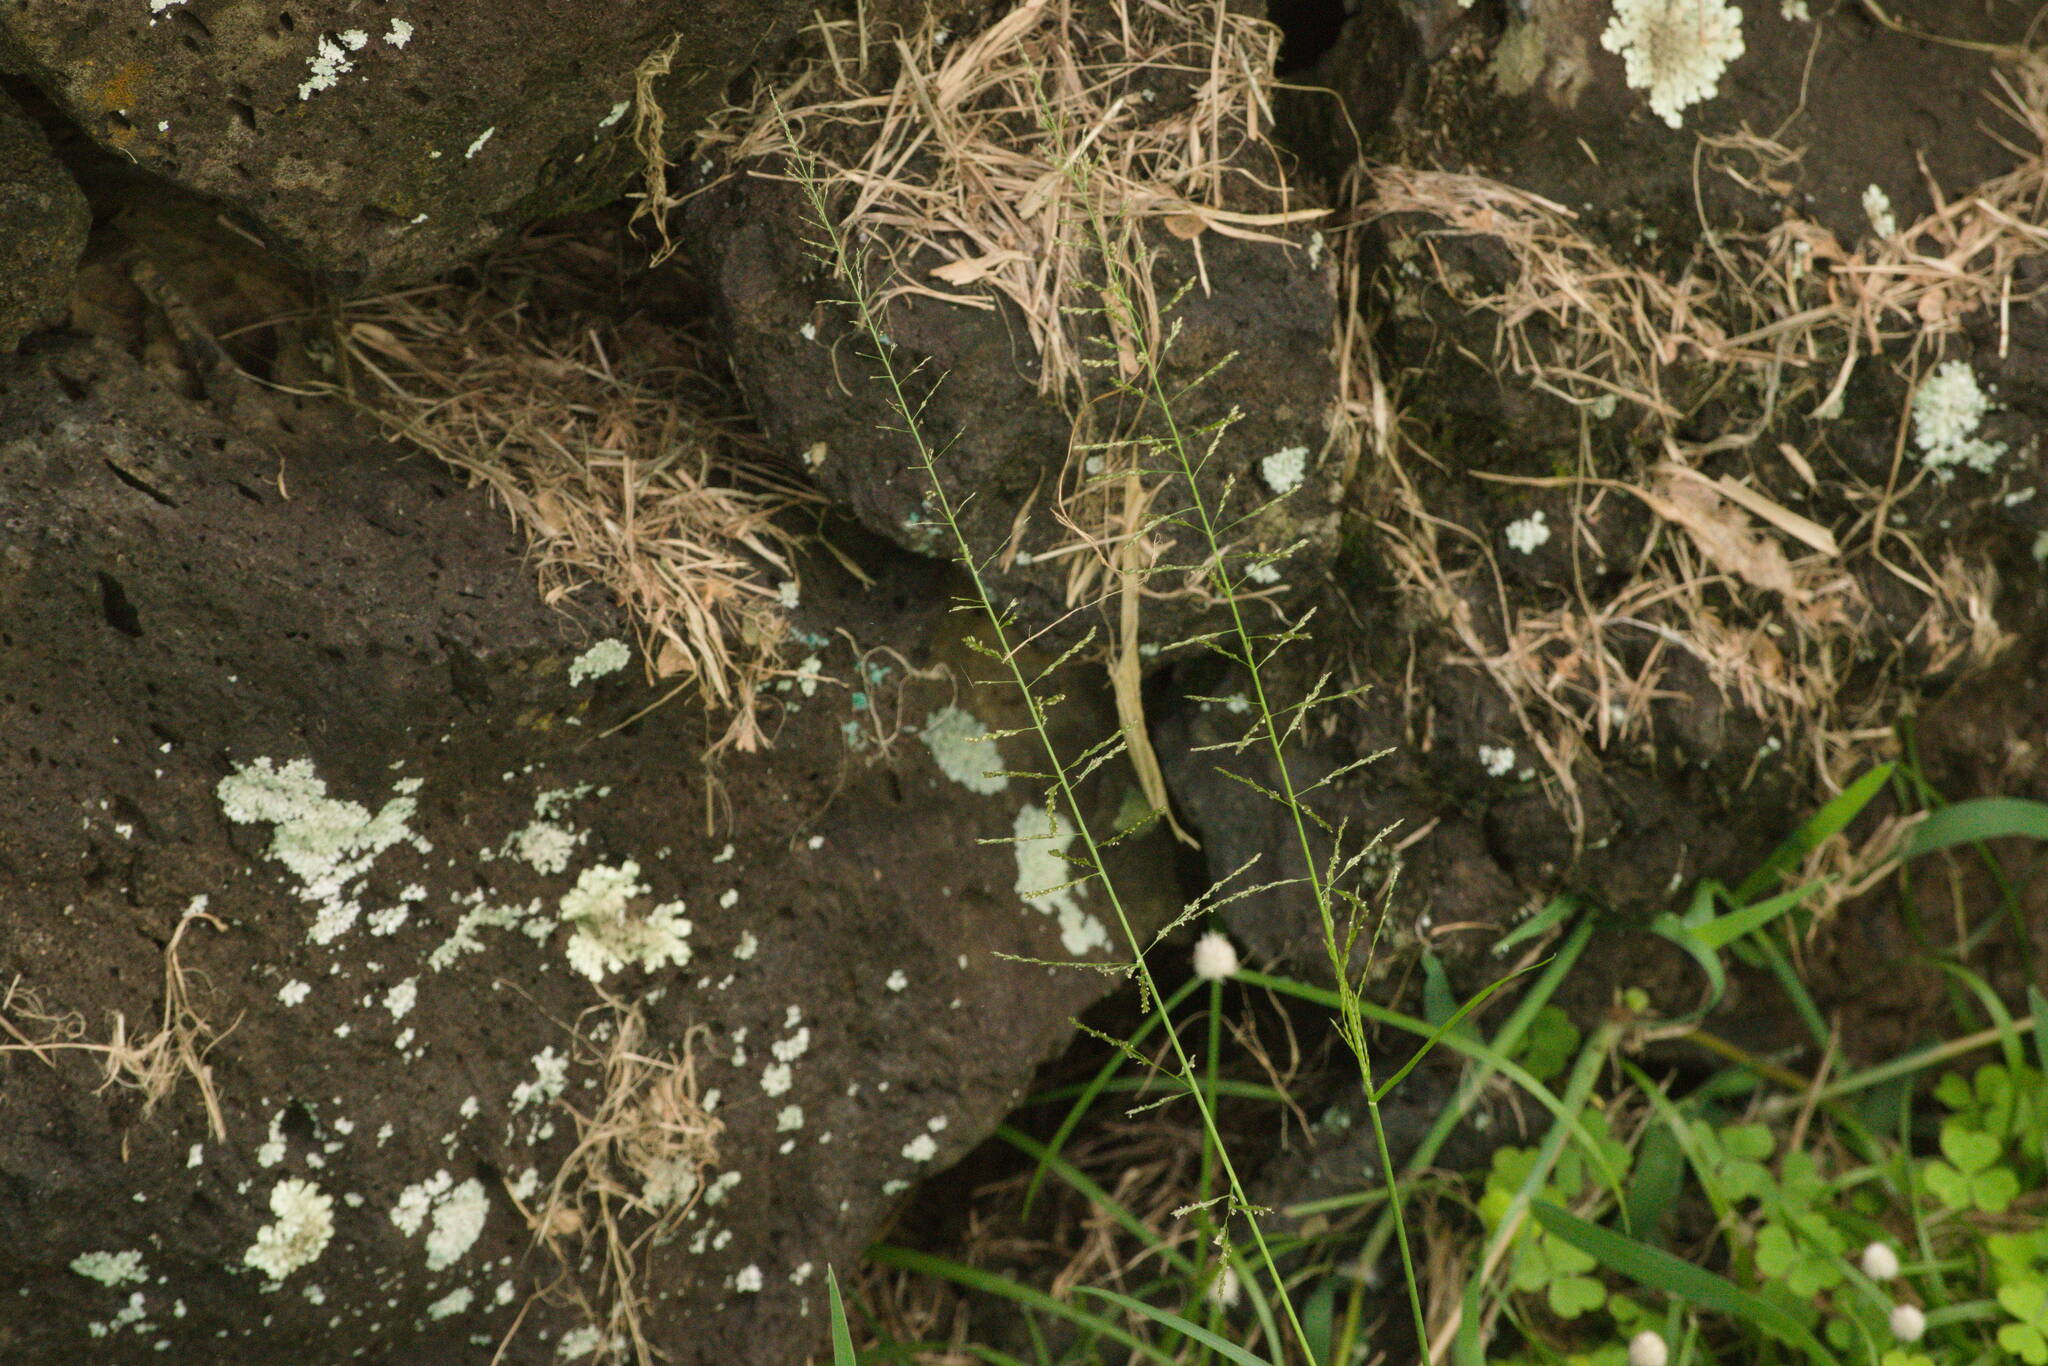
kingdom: Plantae
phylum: Tracheophyta
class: Liliopsida
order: Poales
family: Poaceae
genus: Sporobolus
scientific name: Sporobolus diandrus
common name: Tussock dropseed
